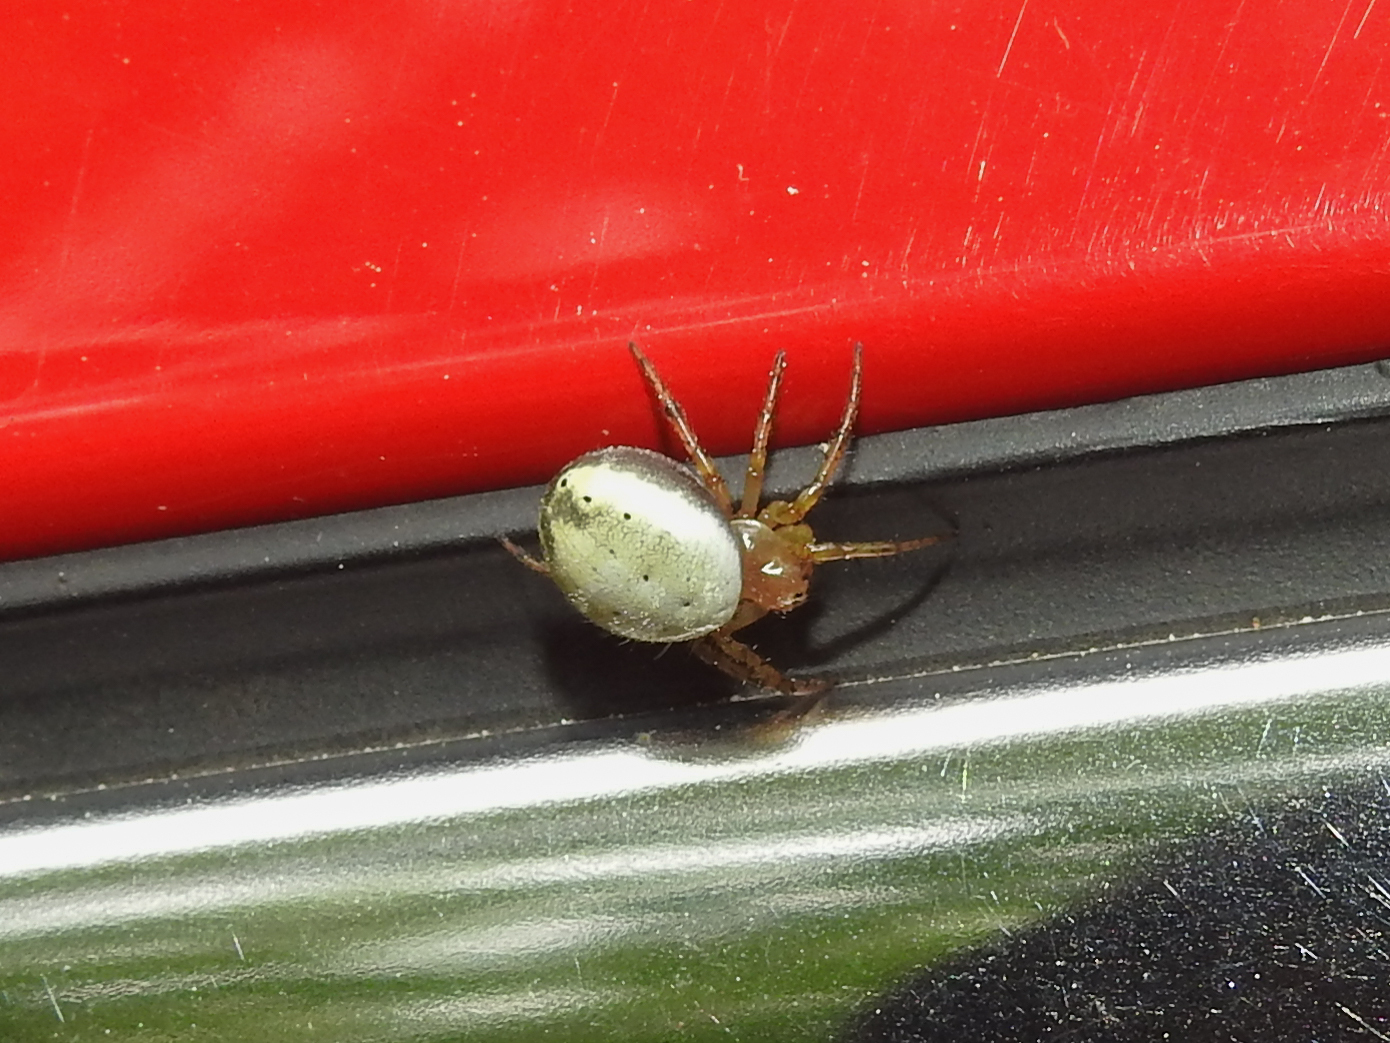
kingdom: Animalia
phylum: Arthropoda
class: Arachnida
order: Araneae
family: Araneidae
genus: Araniella
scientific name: Araniella displicata
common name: Sixspotted orb weaver
